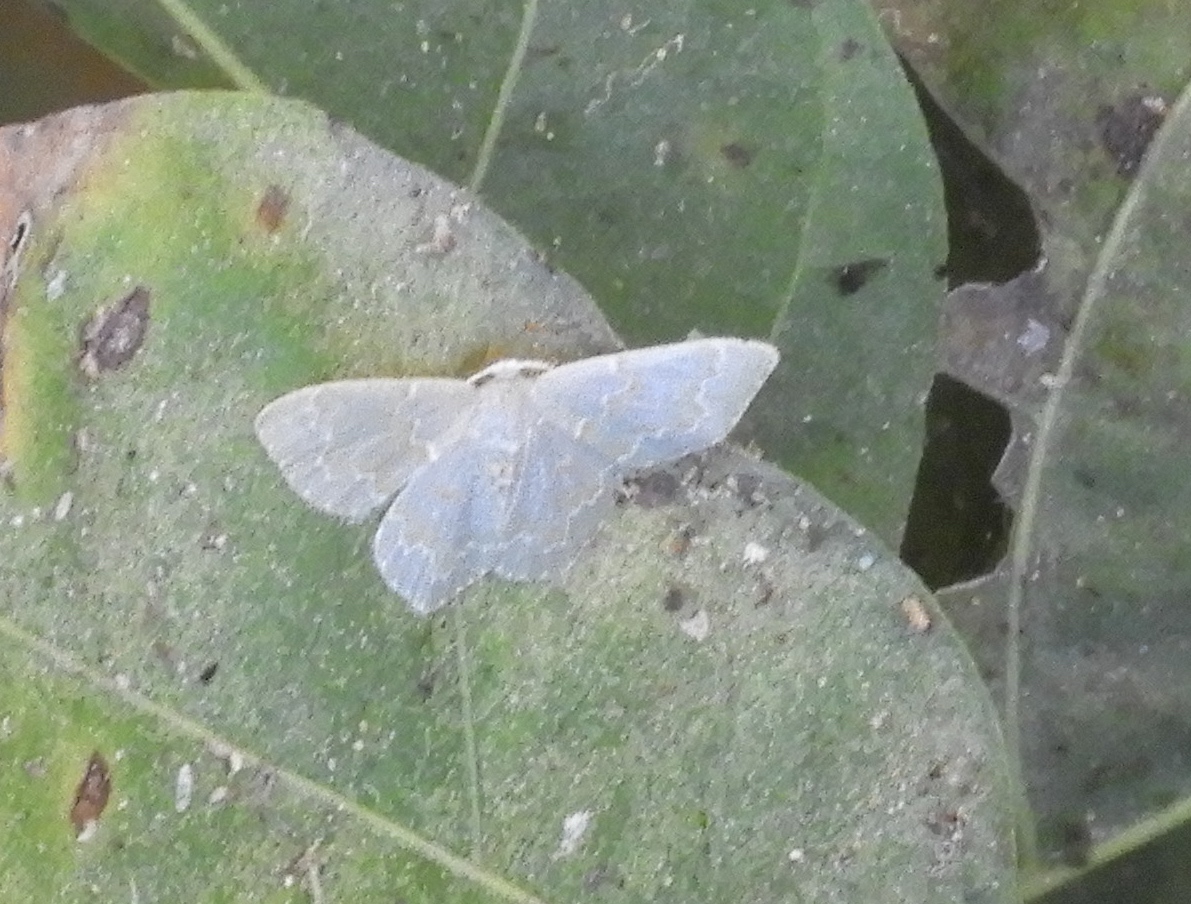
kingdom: Animalia
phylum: Arthropoda
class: Insecta
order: Lepidoptera
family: Geometridae
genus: Chloropteryx
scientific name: Chloropteryx
